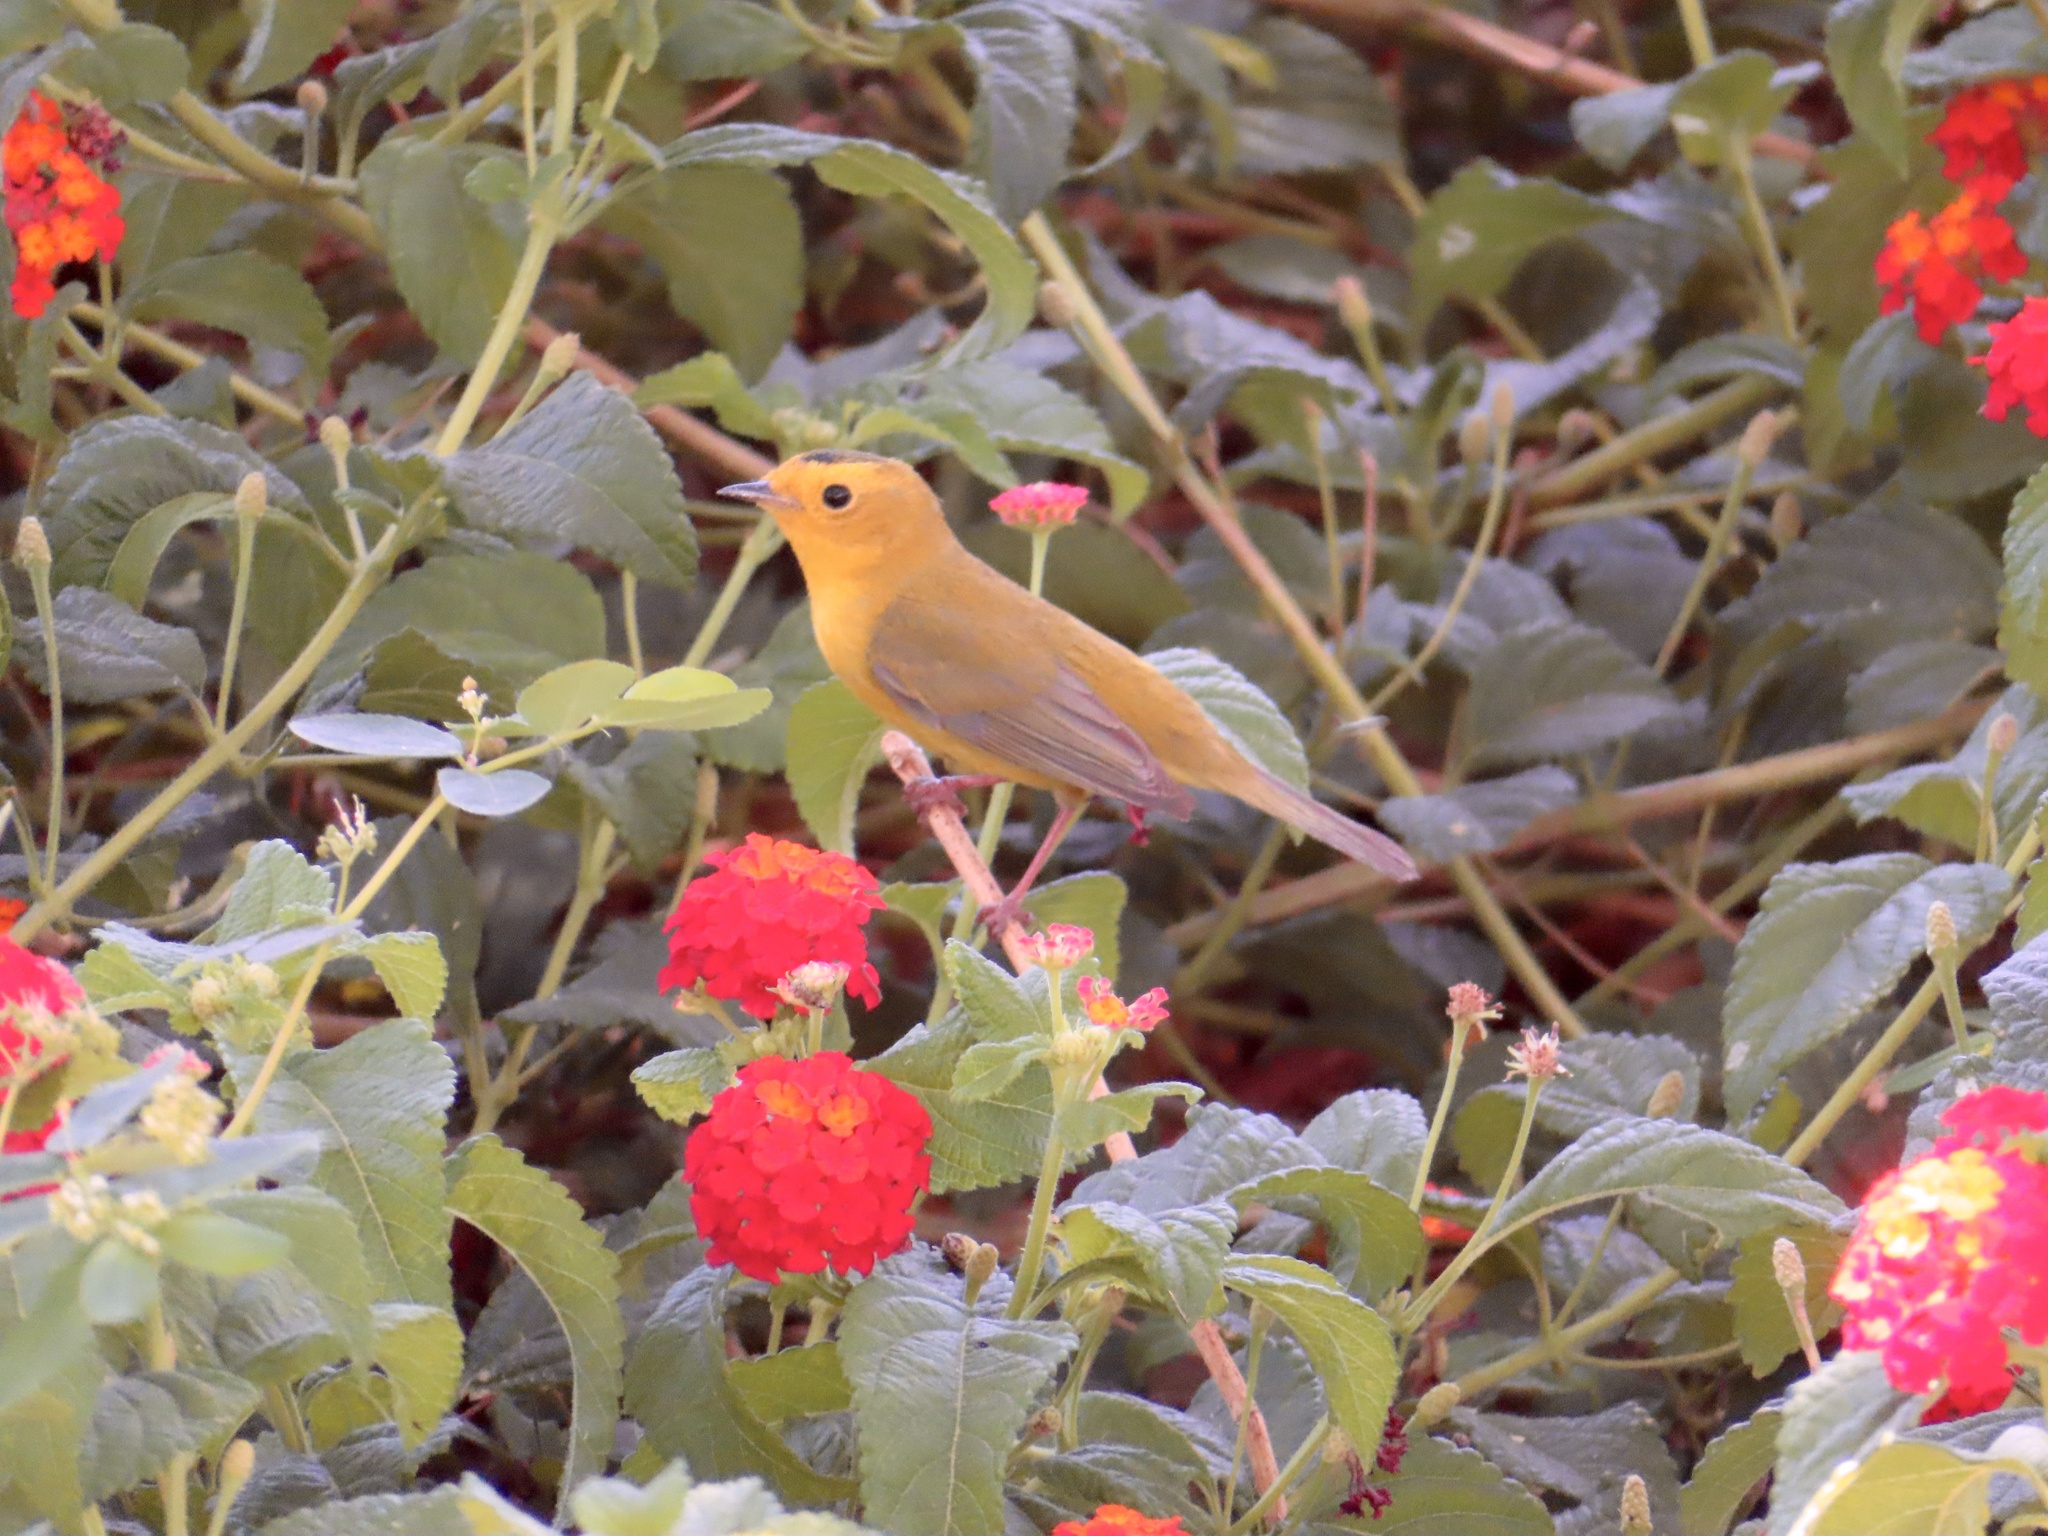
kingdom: Animalia
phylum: Chordata
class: Aves
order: Passeriformes
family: Parulidae
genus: Cardellina
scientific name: Cardellina pusilla
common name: Wilson's warbler
